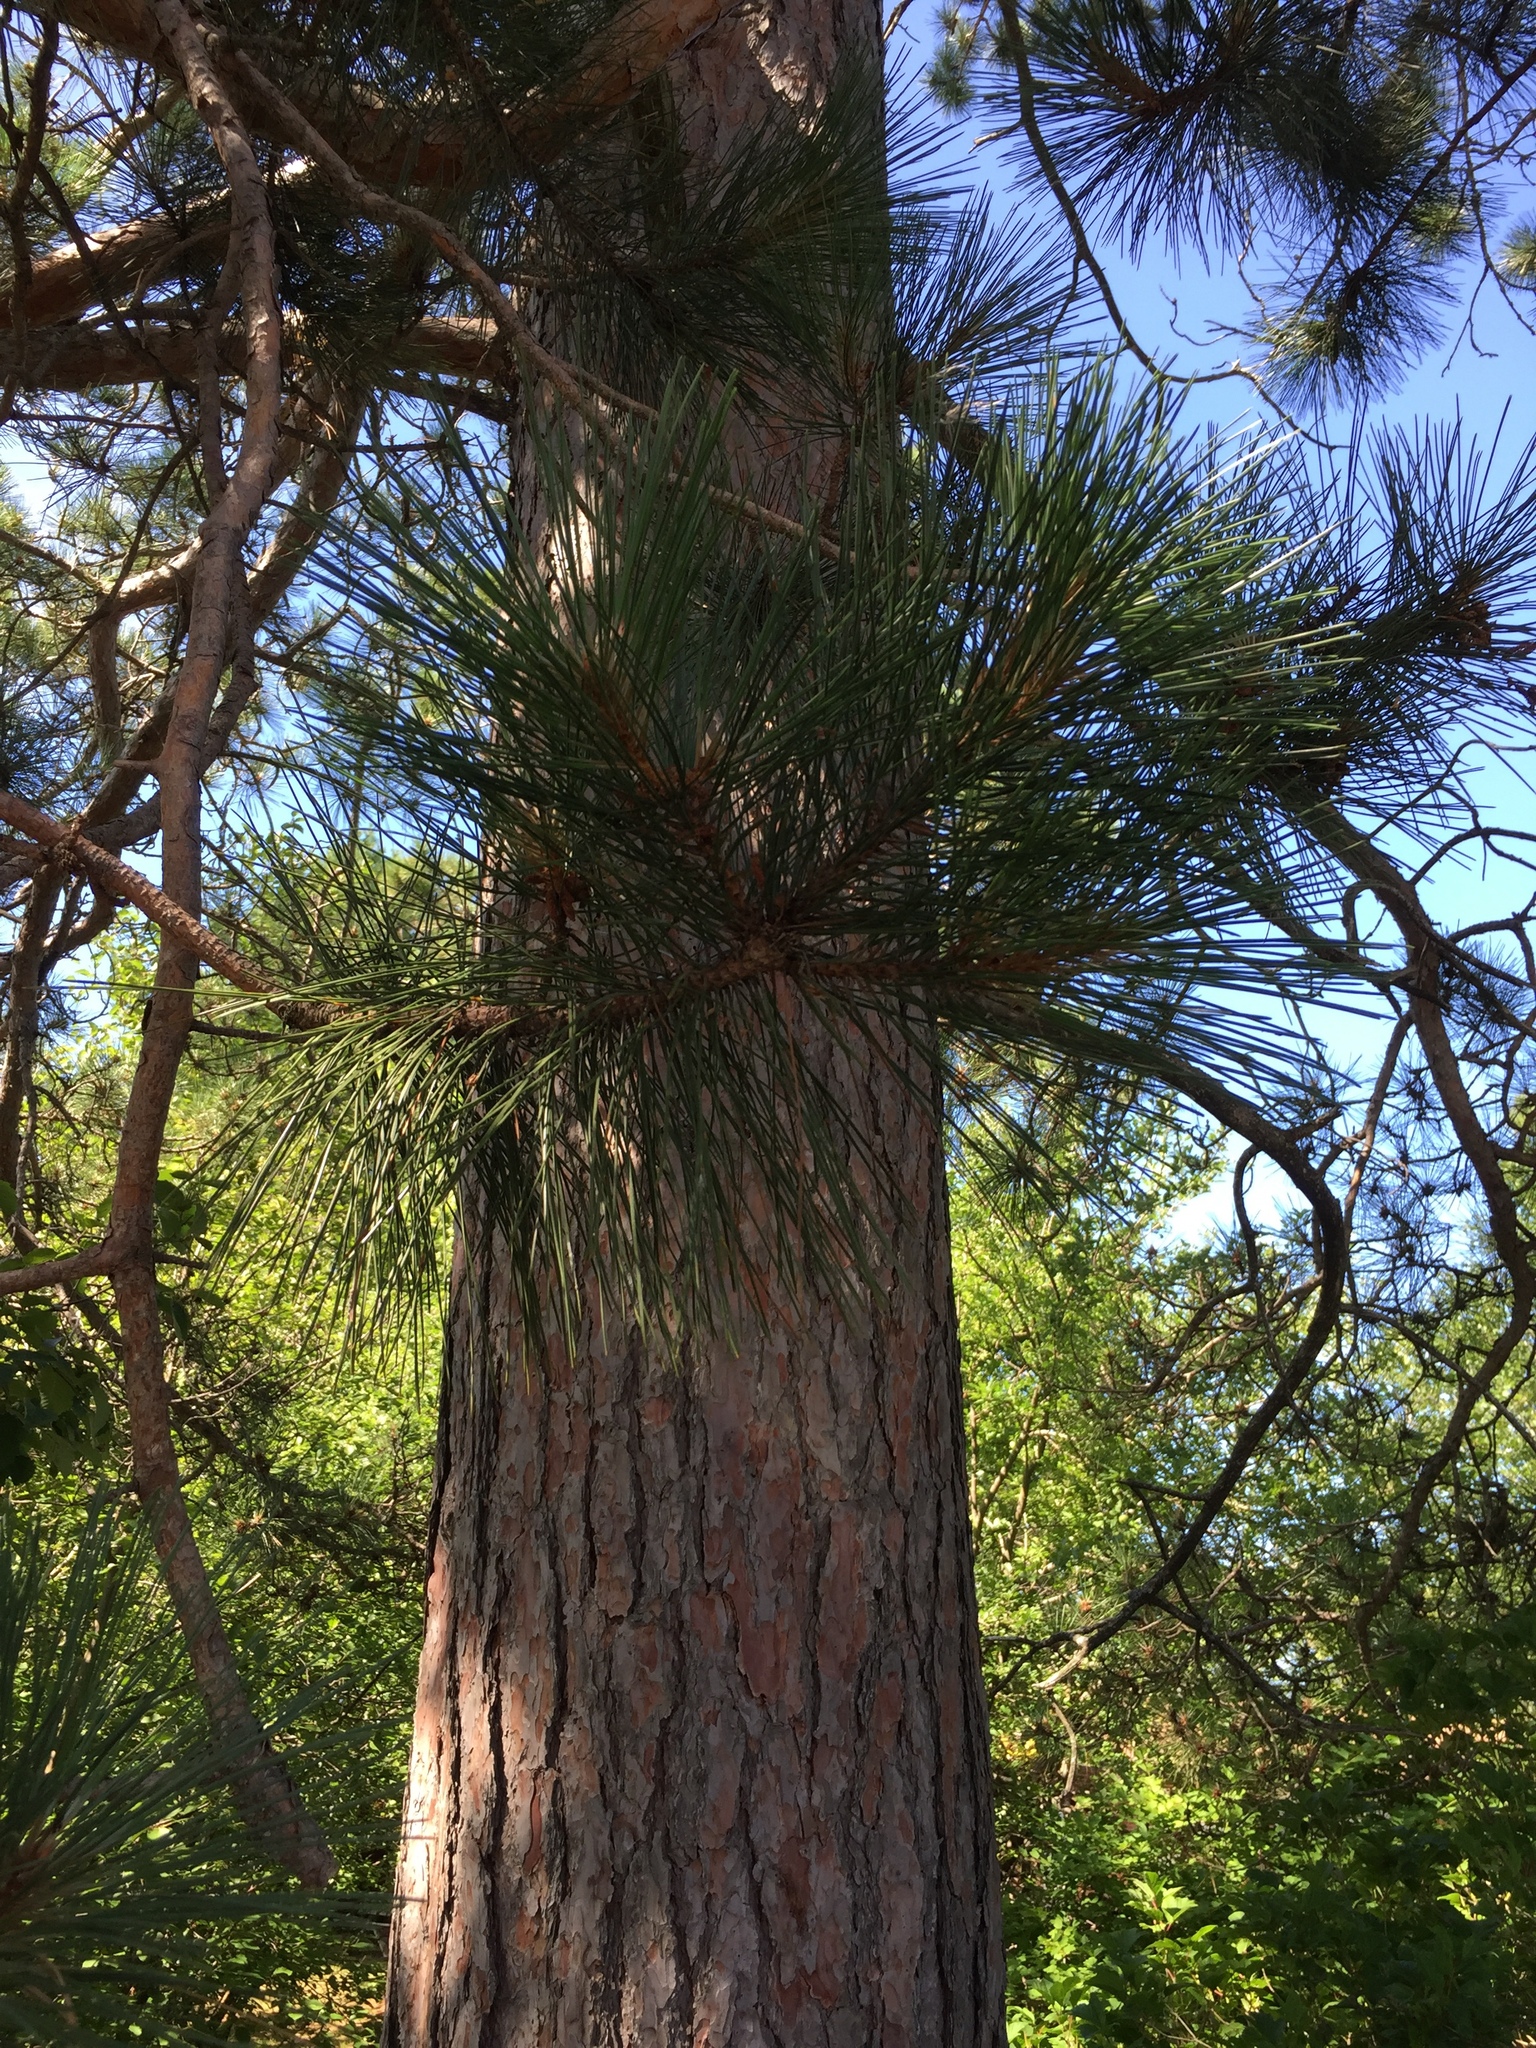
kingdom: Plantae
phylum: Tracheophyta
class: Pinopsida
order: Pinales
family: Pinaceae
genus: Pinus
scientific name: Pinus resinosa
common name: Norway pine
